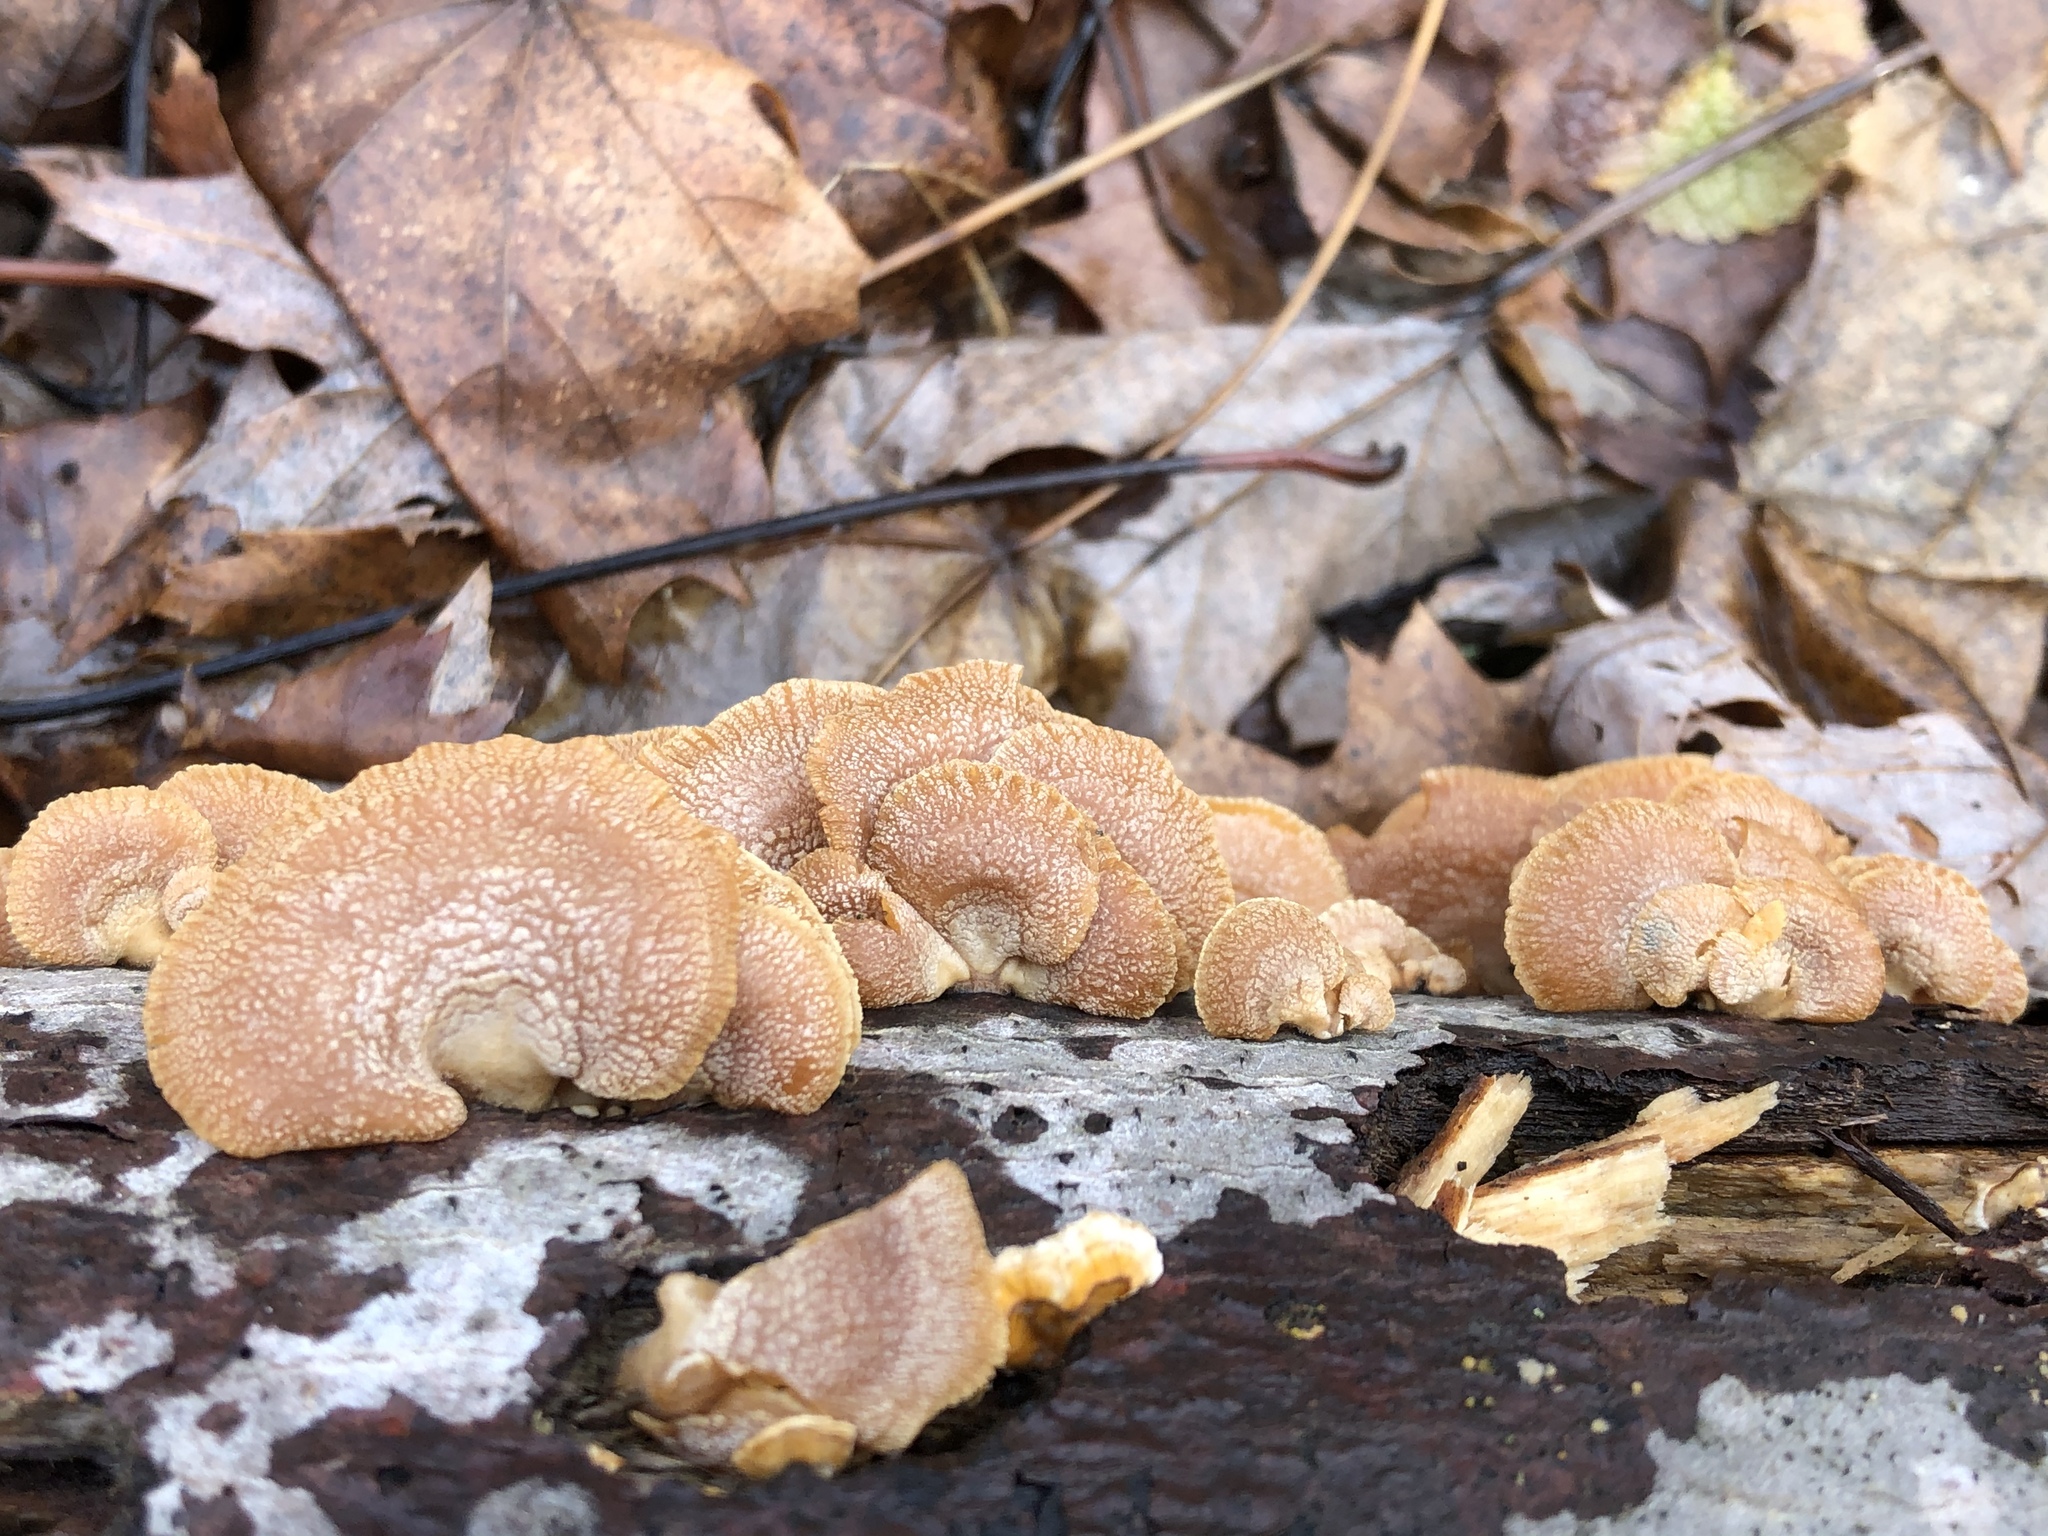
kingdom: Fungi
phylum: Basidiomycota
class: Agaricomycetes
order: Agaricales
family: Mycenaceae
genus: Panellus
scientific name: Panellus stipticus
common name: Bitter oysterling
